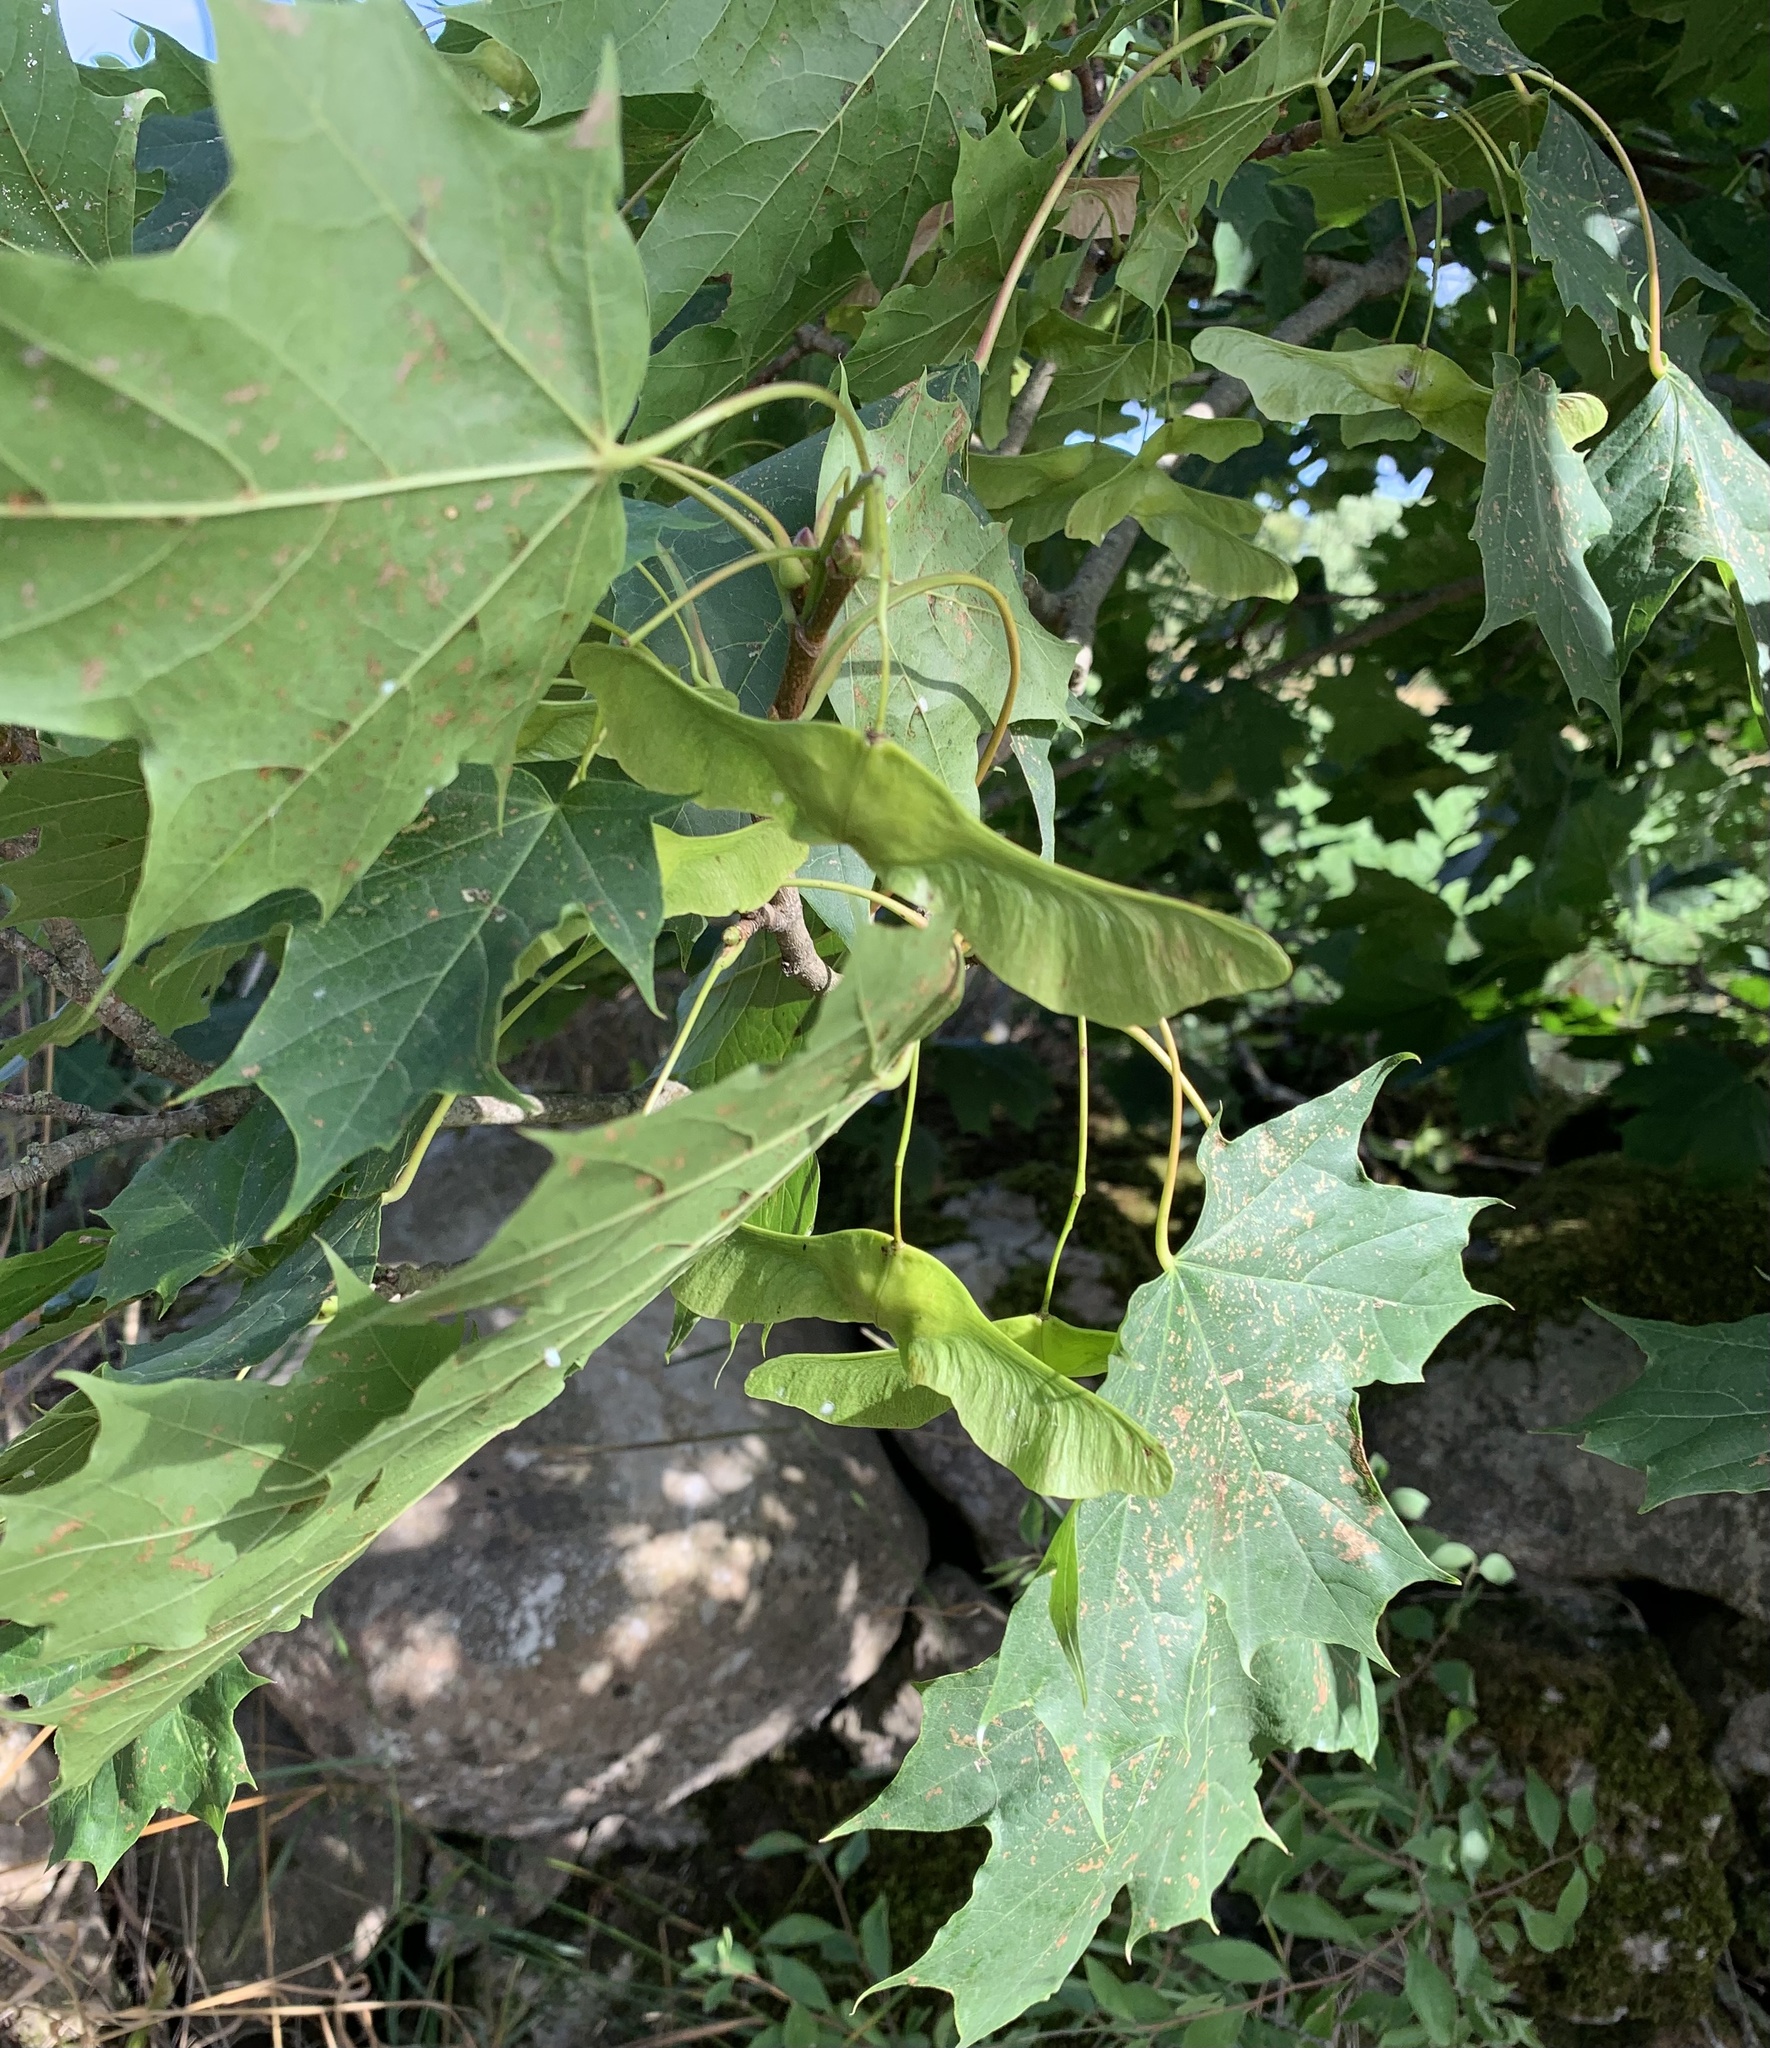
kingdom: Plantae
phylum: Tracheophyta
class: Magnoliopsida
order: Sapindales
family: Sapindaceae
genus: Acer
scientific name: Acer platanoides
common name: Norway maple
